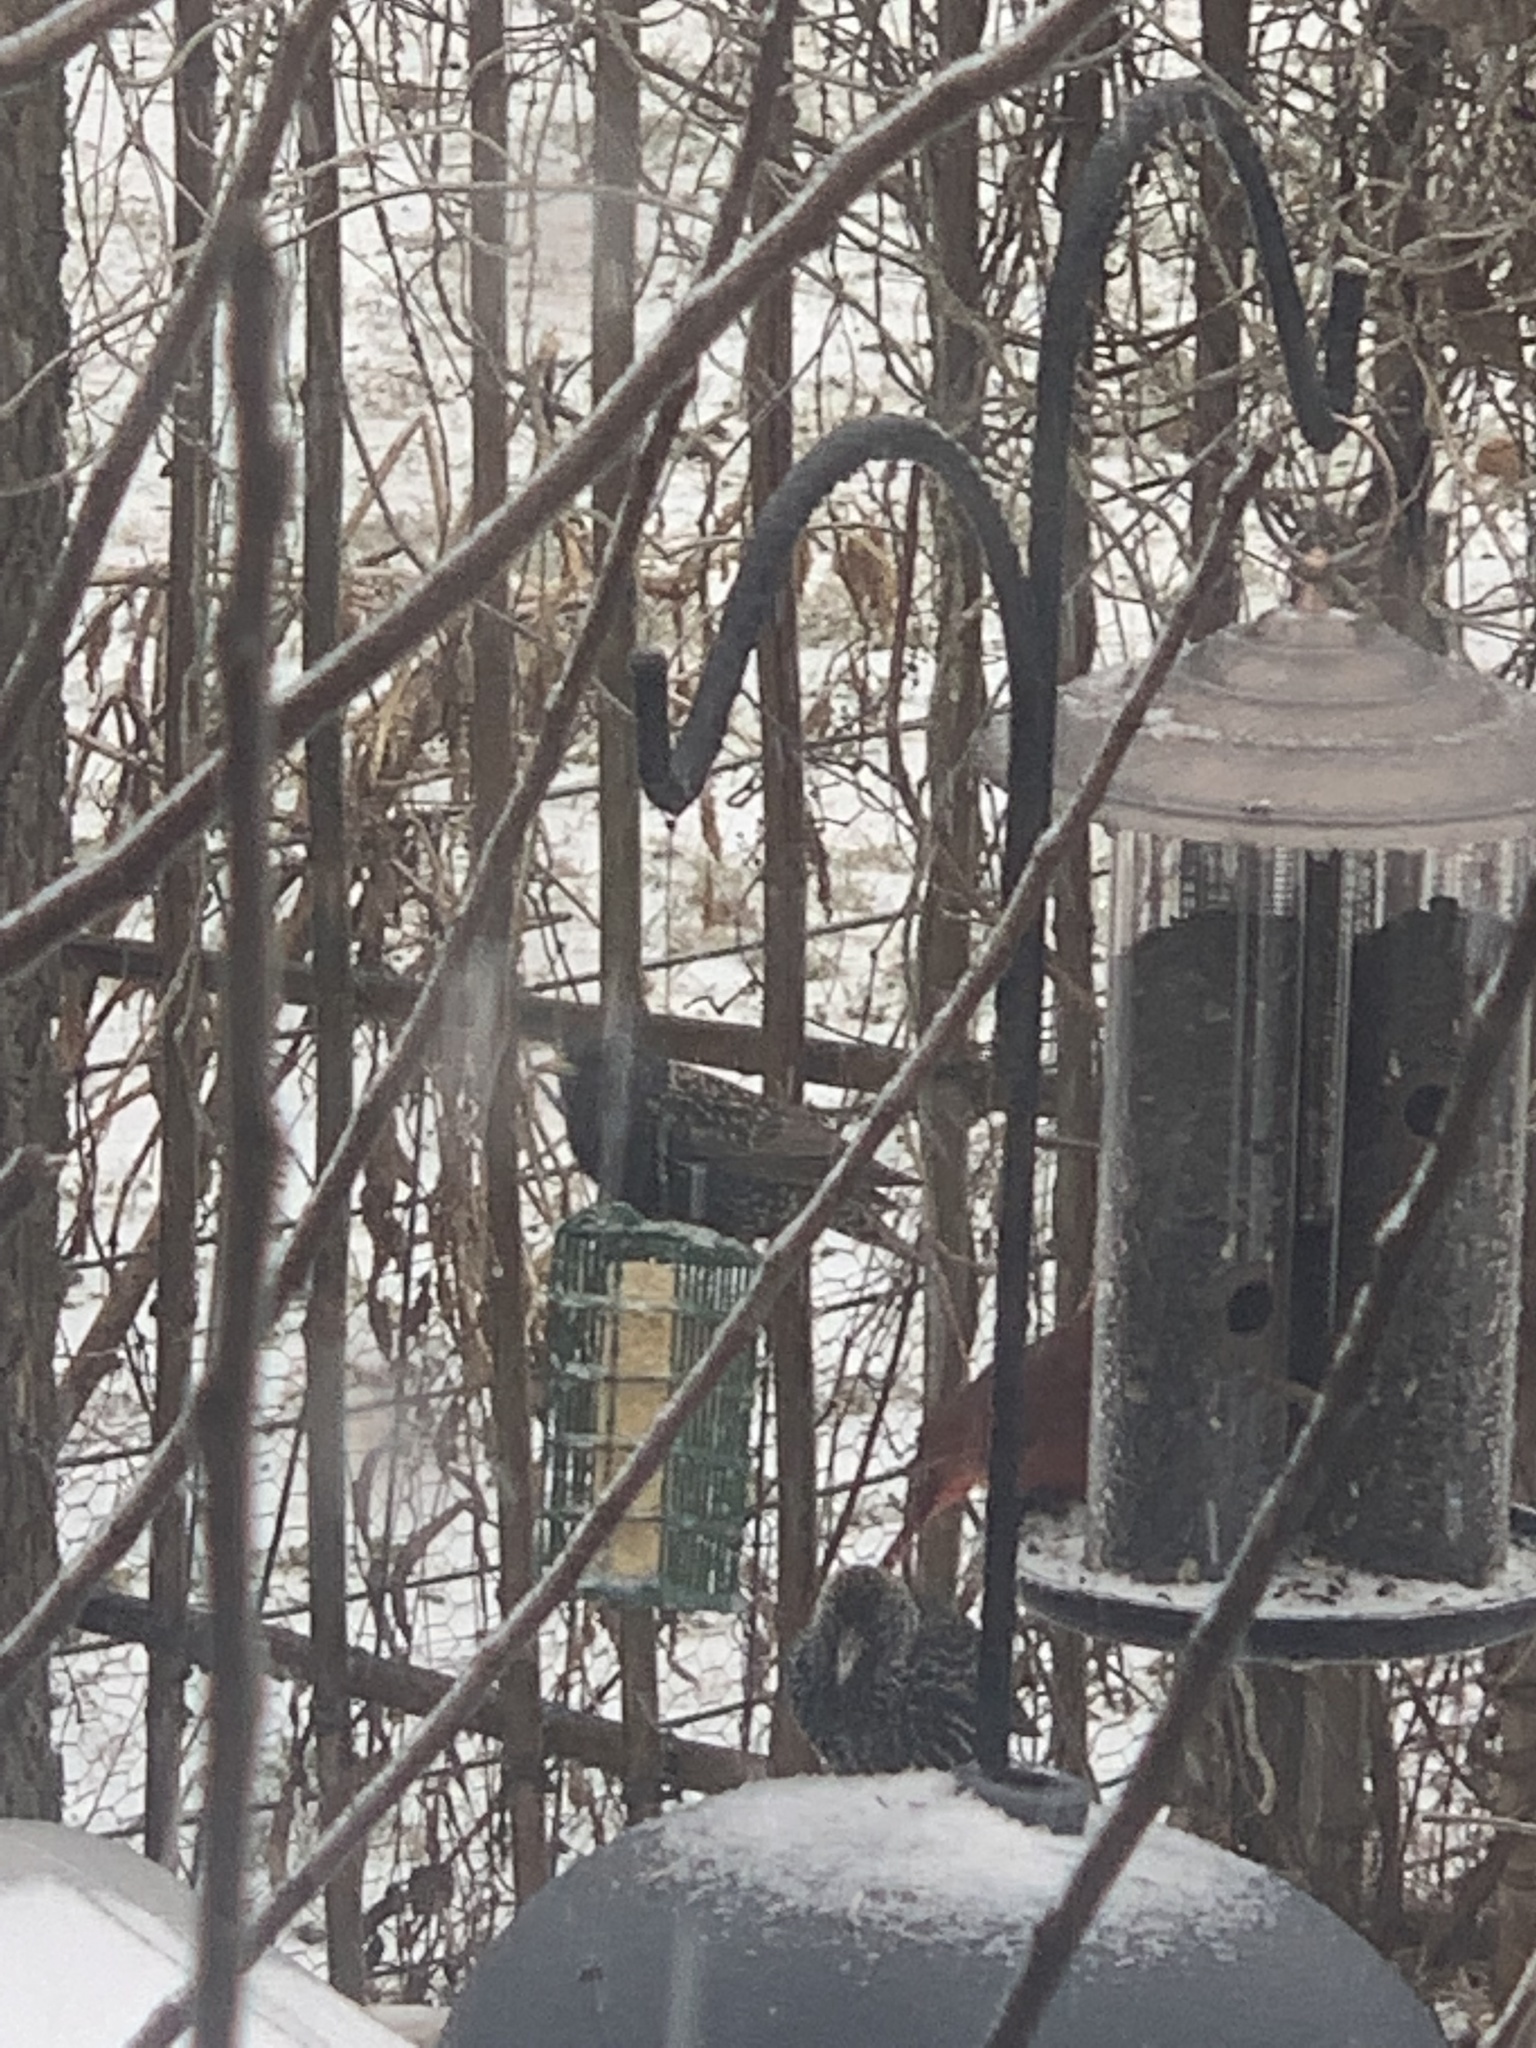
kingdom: Animalia
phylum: Chordata
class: Aves
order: Passeriformes
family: Sturnidae
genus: Sturnus
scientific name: Sturnus vulgaris
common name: Common starling
